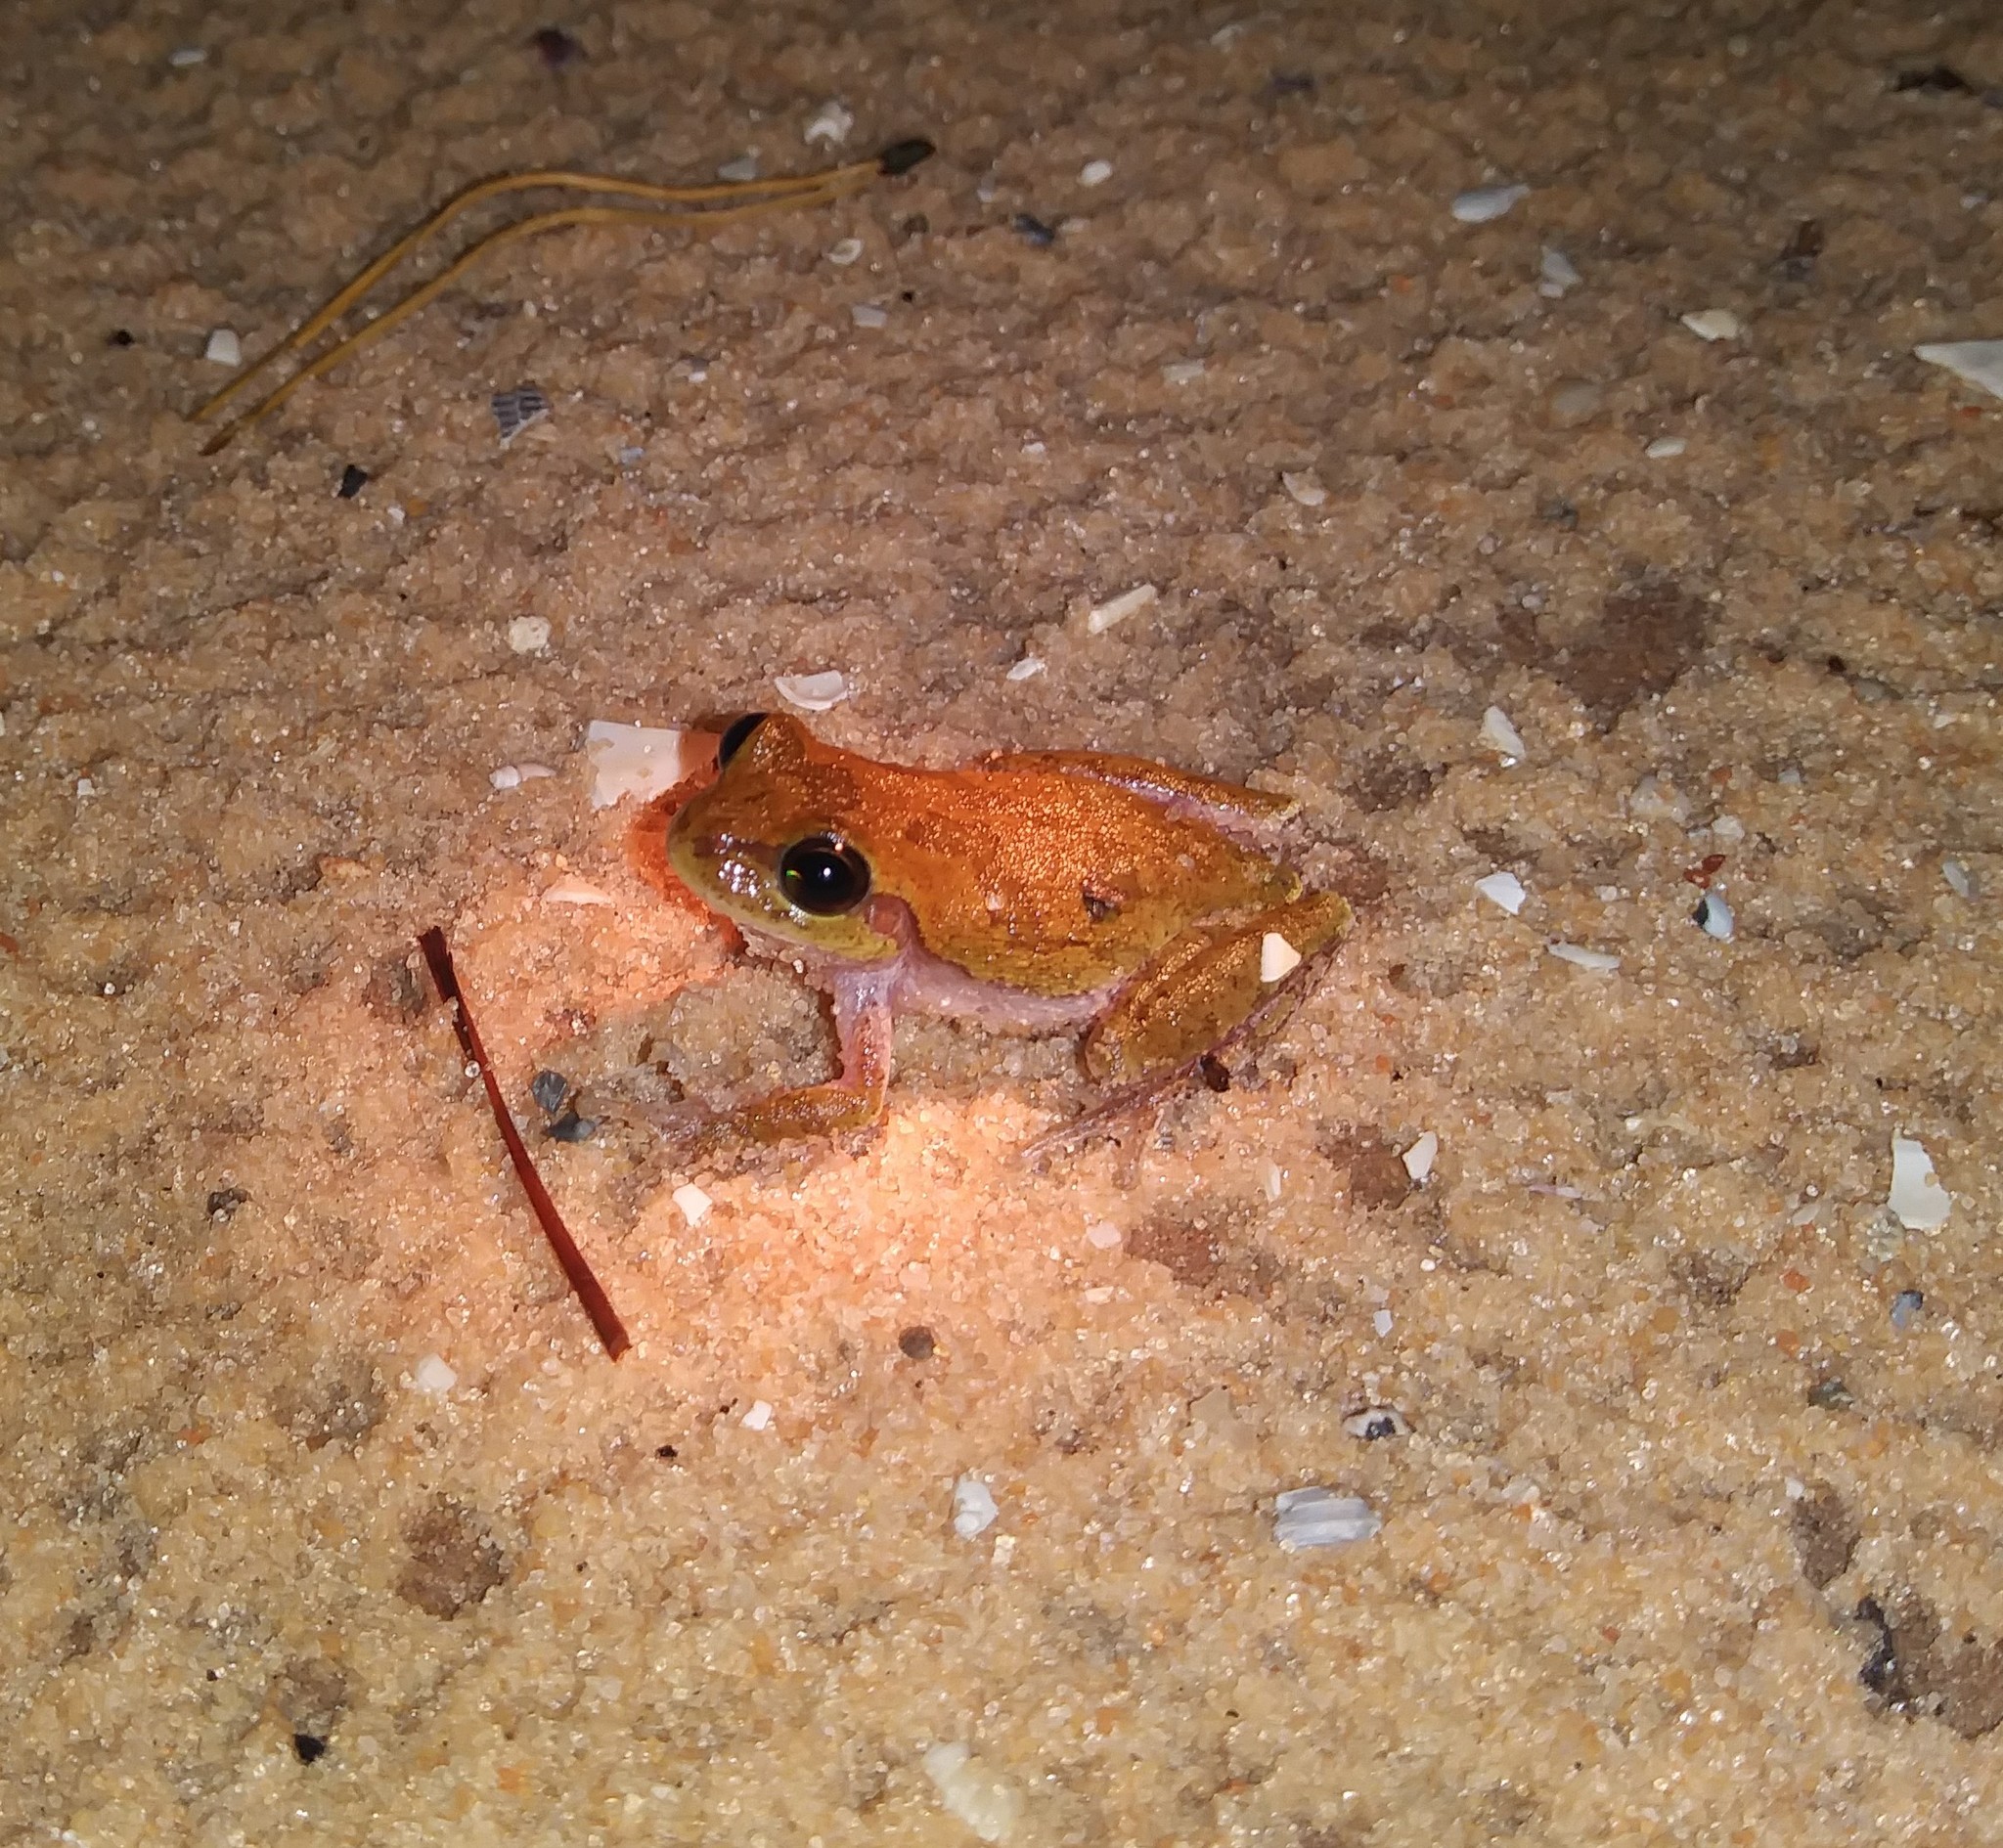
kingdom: Animalia
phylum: Chordata
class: Amphibia
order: Anura
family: Hylidae
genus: Hyla
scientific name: Hyla femoralis
